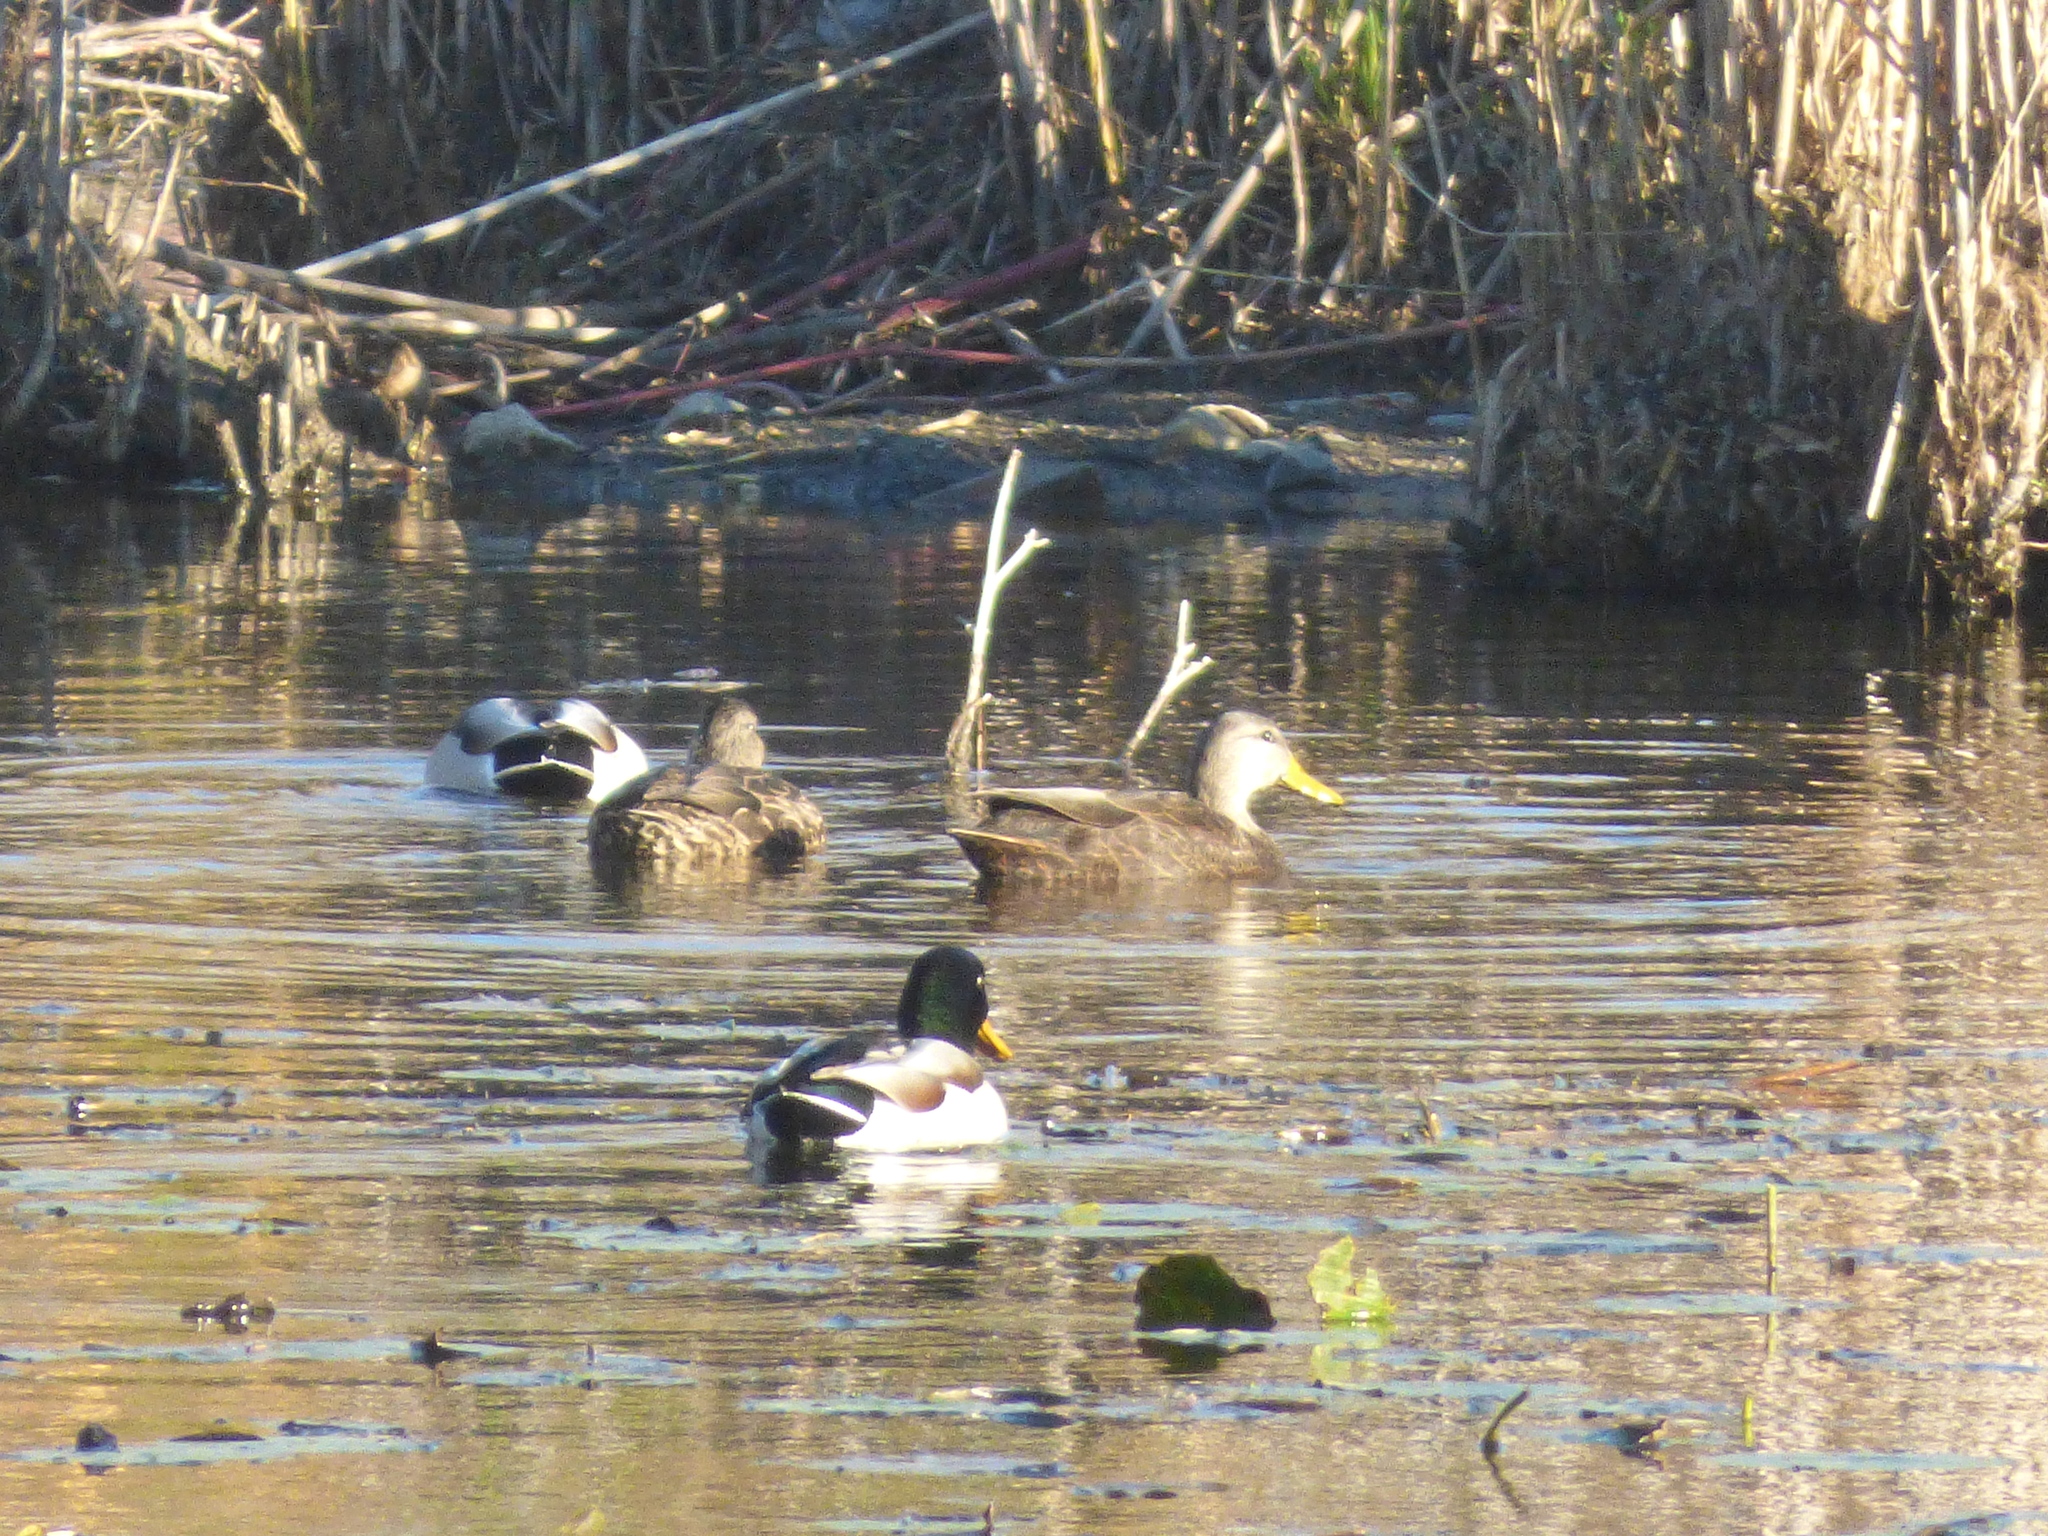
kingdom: Animalia
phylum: Chordata
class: Aves
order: Anseriformes
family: Anatidae
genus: Anas
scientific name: Anas rubripes
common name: American black duck
